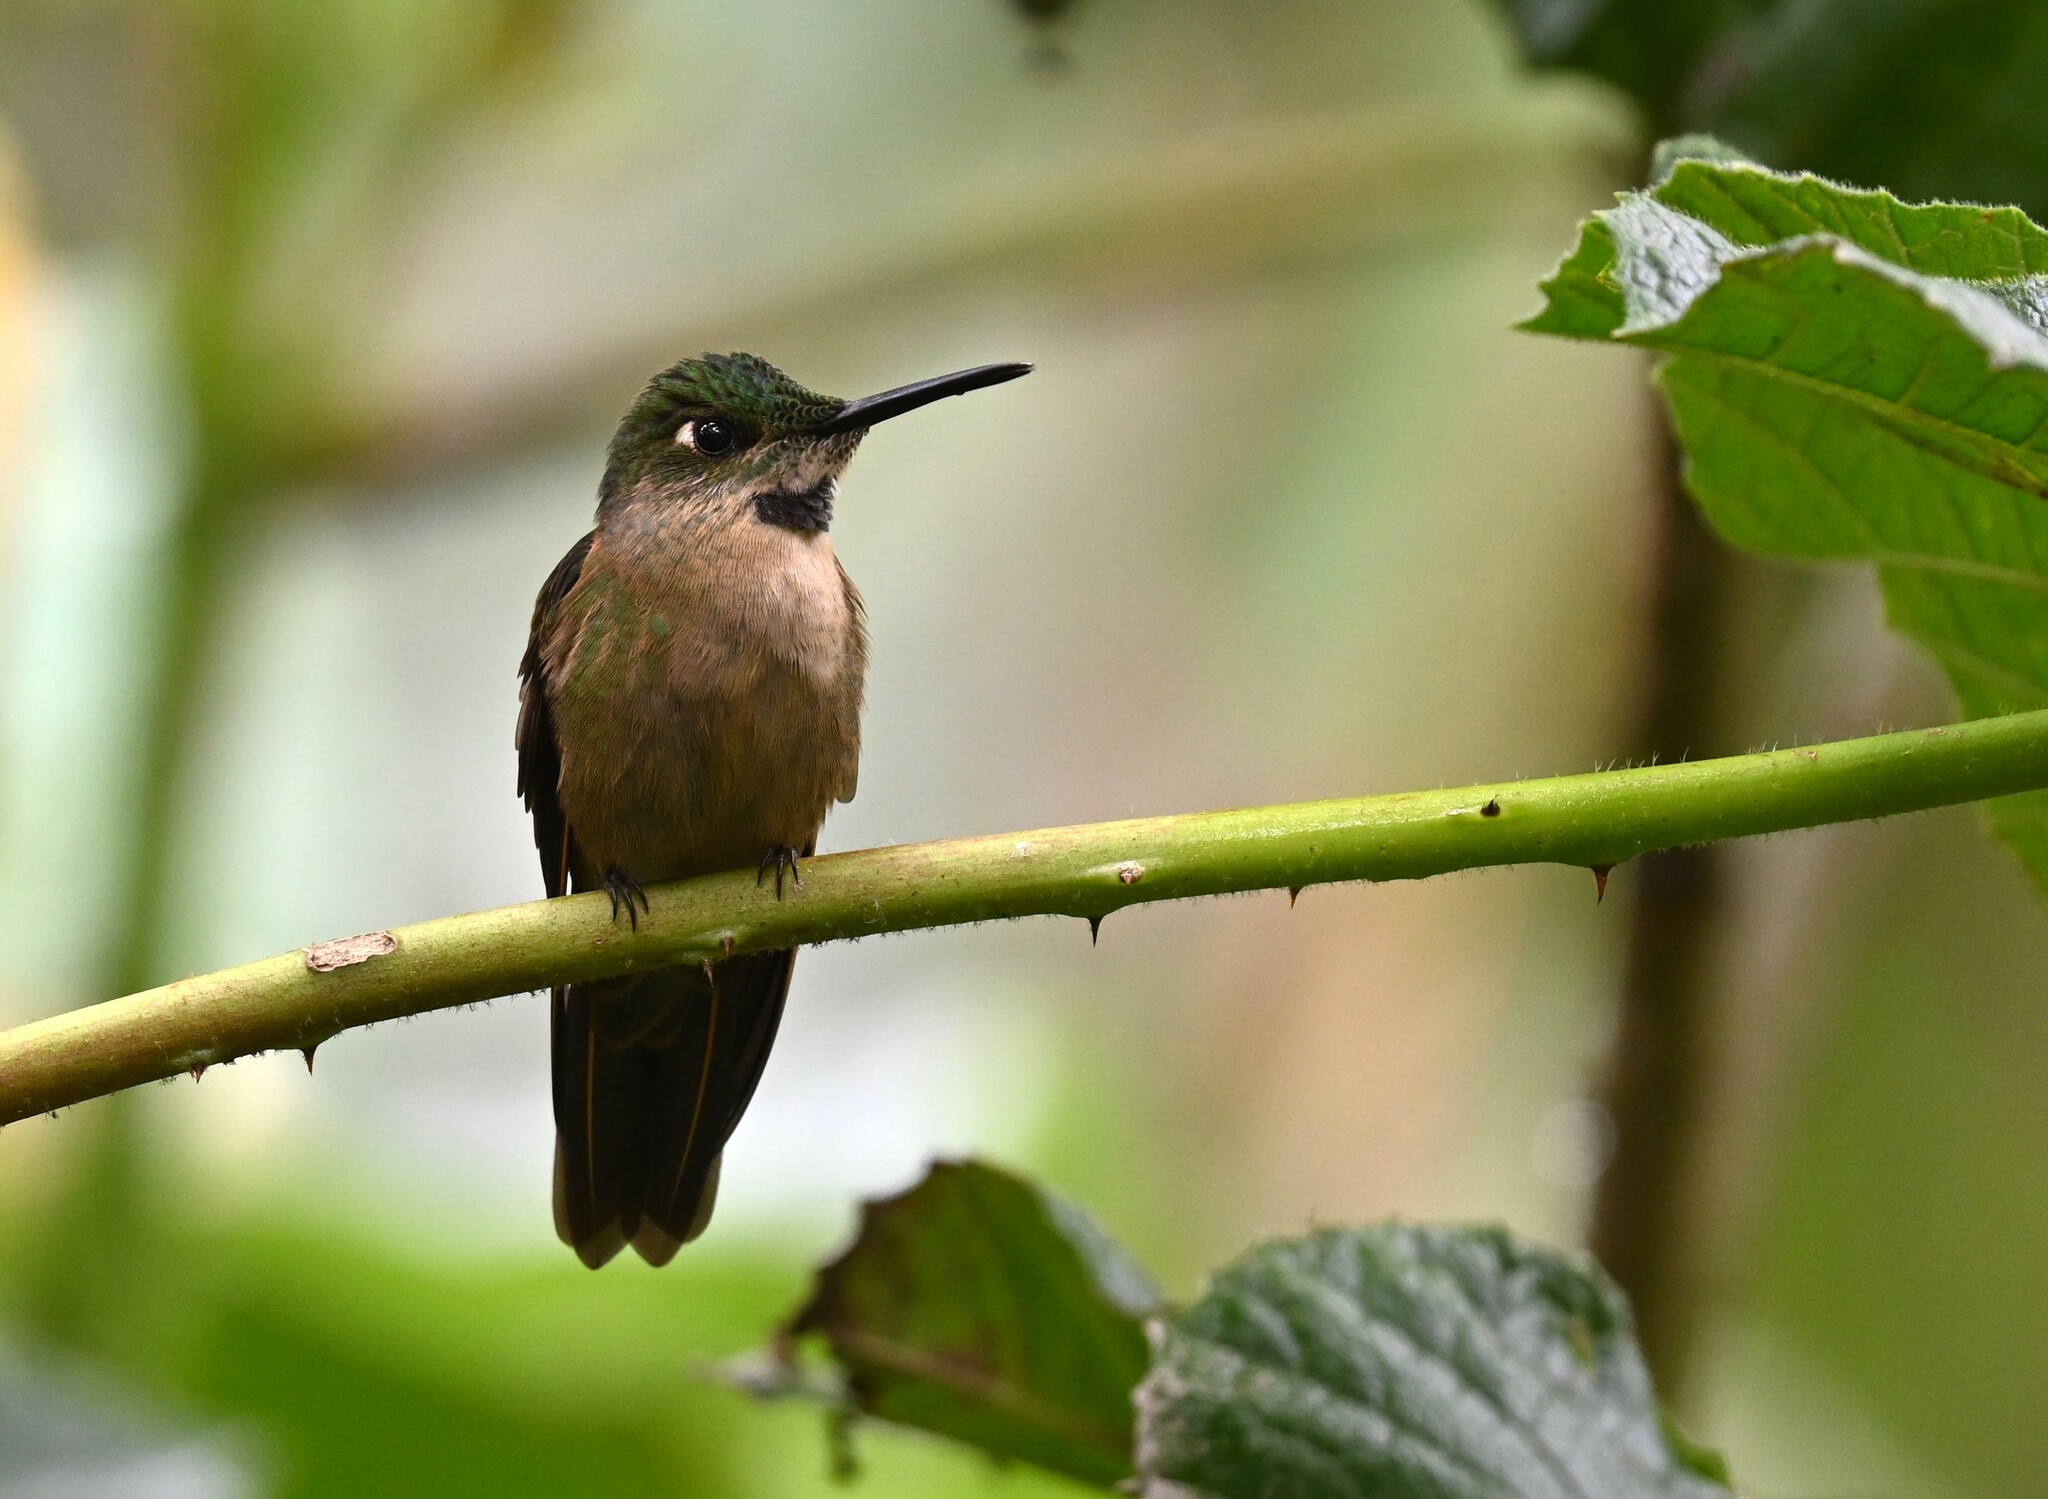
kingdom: Animalia
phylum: Chordata
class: Aves
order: Apodiformes
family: Trochilidae
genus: Heliodoxa
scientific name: Heliodoxa rubinoides
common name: Fawn-breasted brilliant
